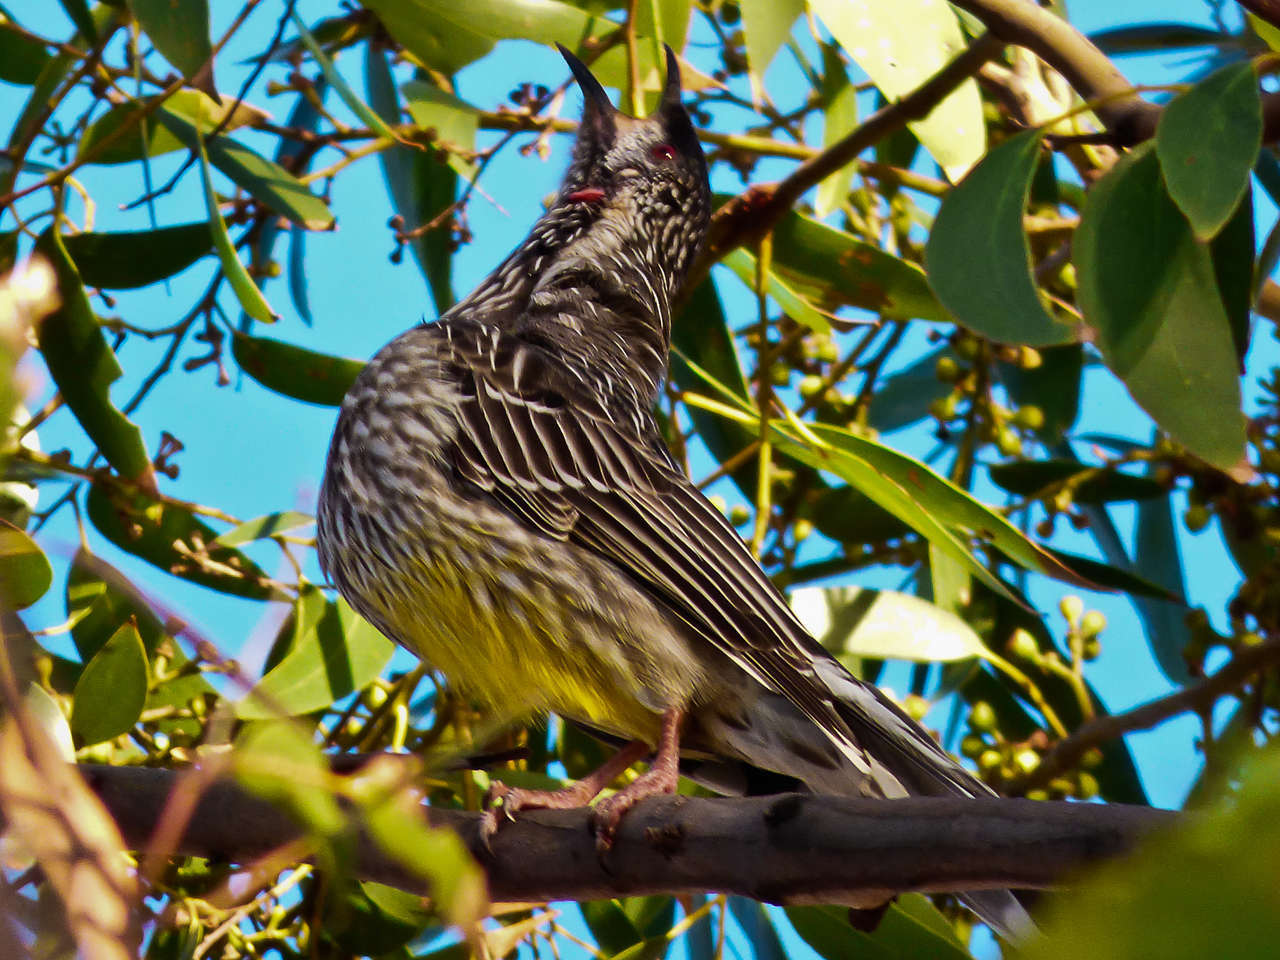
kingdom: Animalia
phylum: Chordata
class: Aves
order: Passeriformes
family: Meliphagidae
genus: Anthochaera
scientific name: Anthochaera carunculata
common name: Red wattlebird
